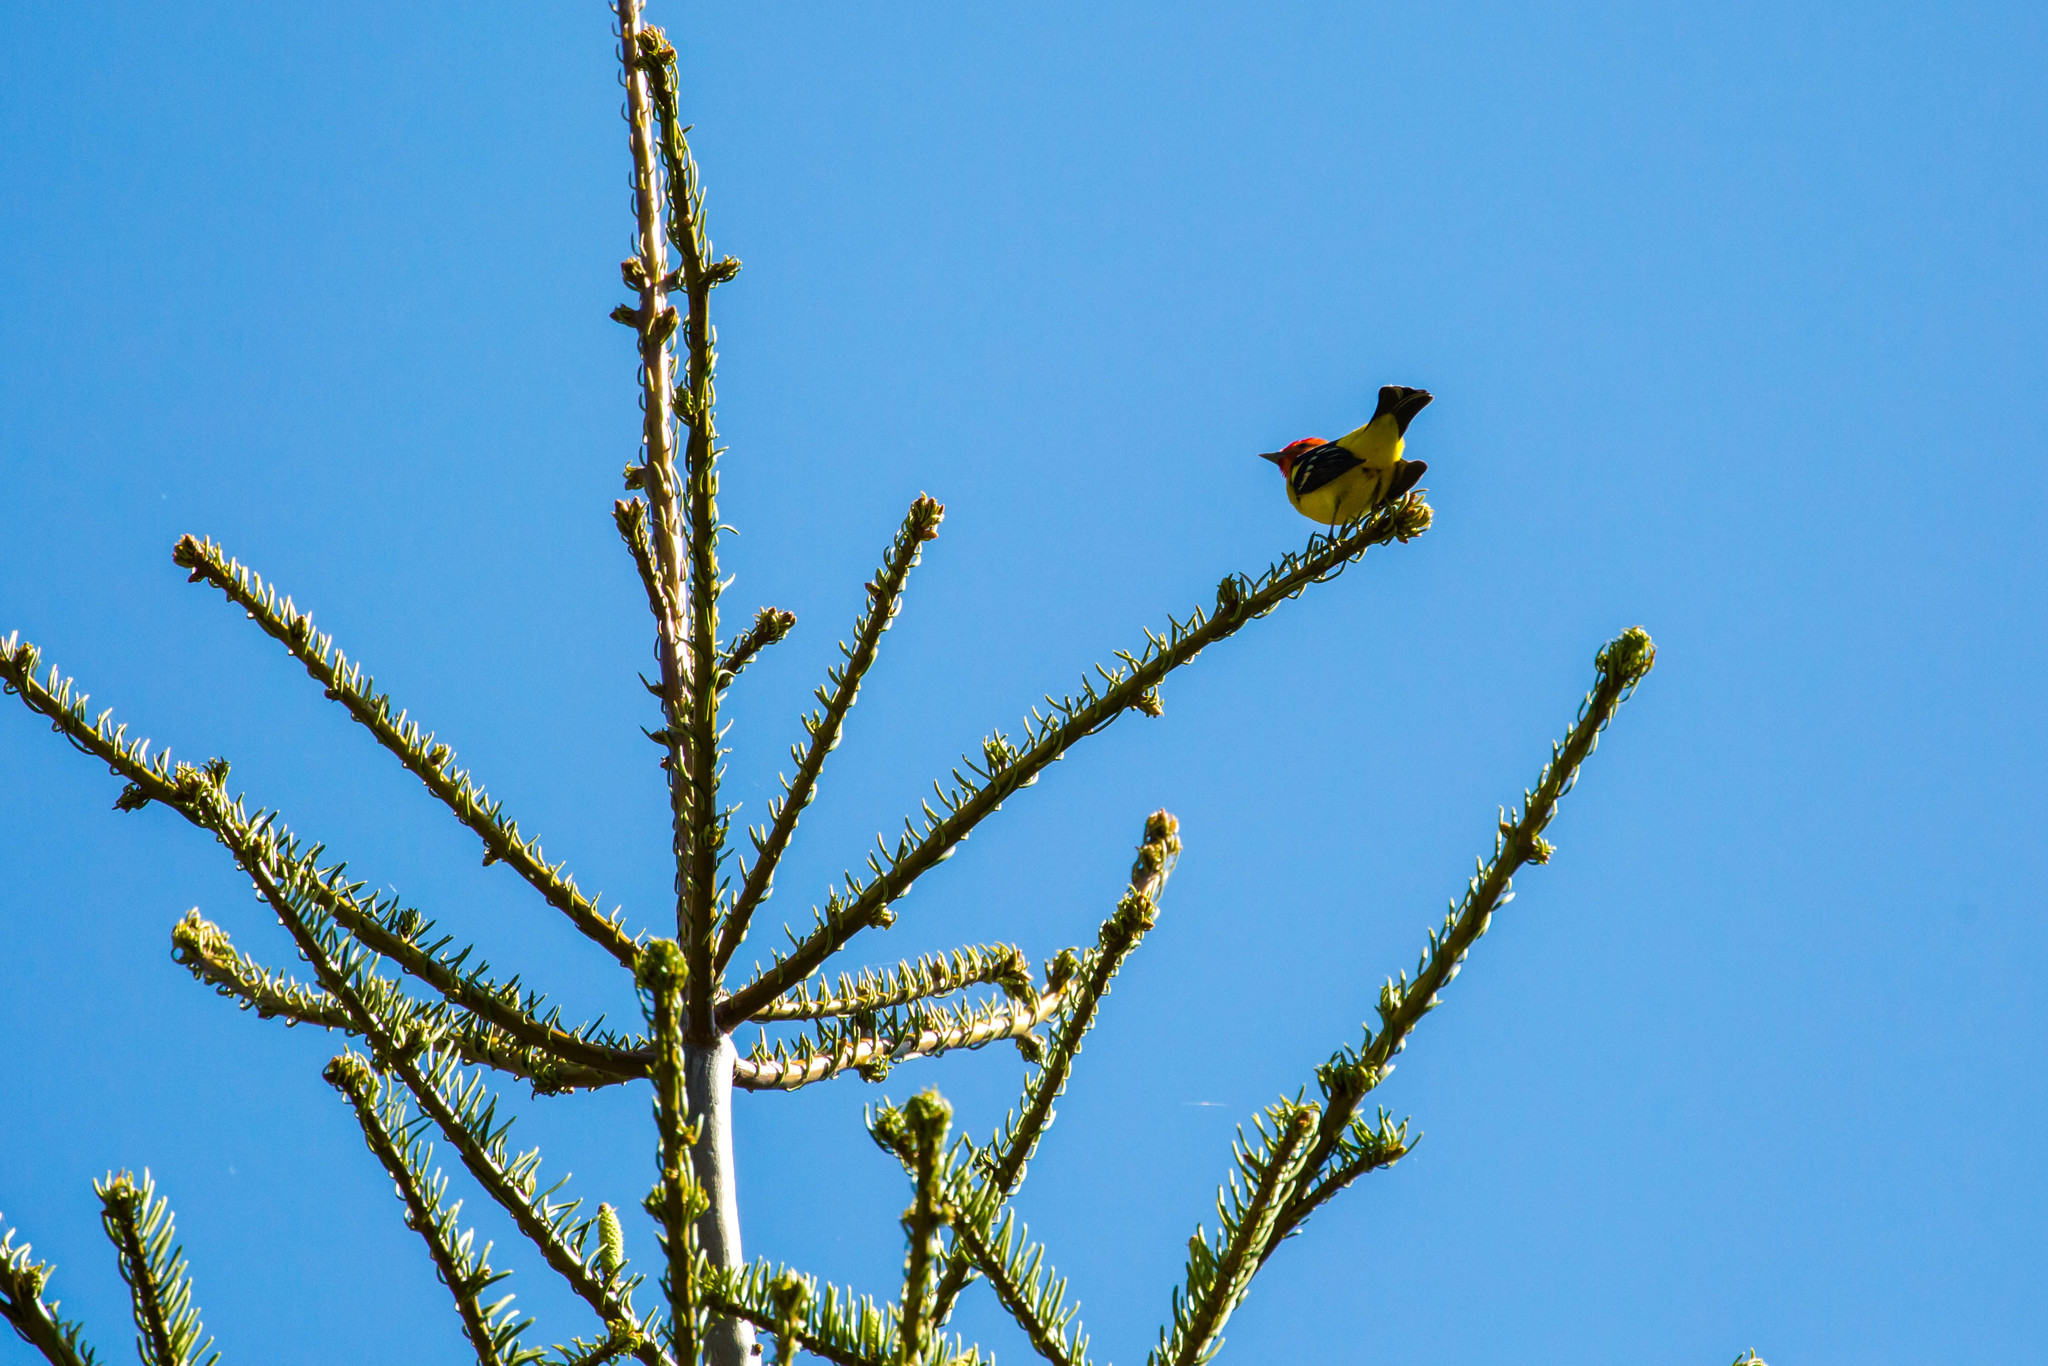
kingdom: Animalia
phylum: Chordata
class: Aves
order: Passeriformes
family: Cardinalidae
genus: Piranga
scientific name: Piranga ludoviciana
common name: Western tanager
